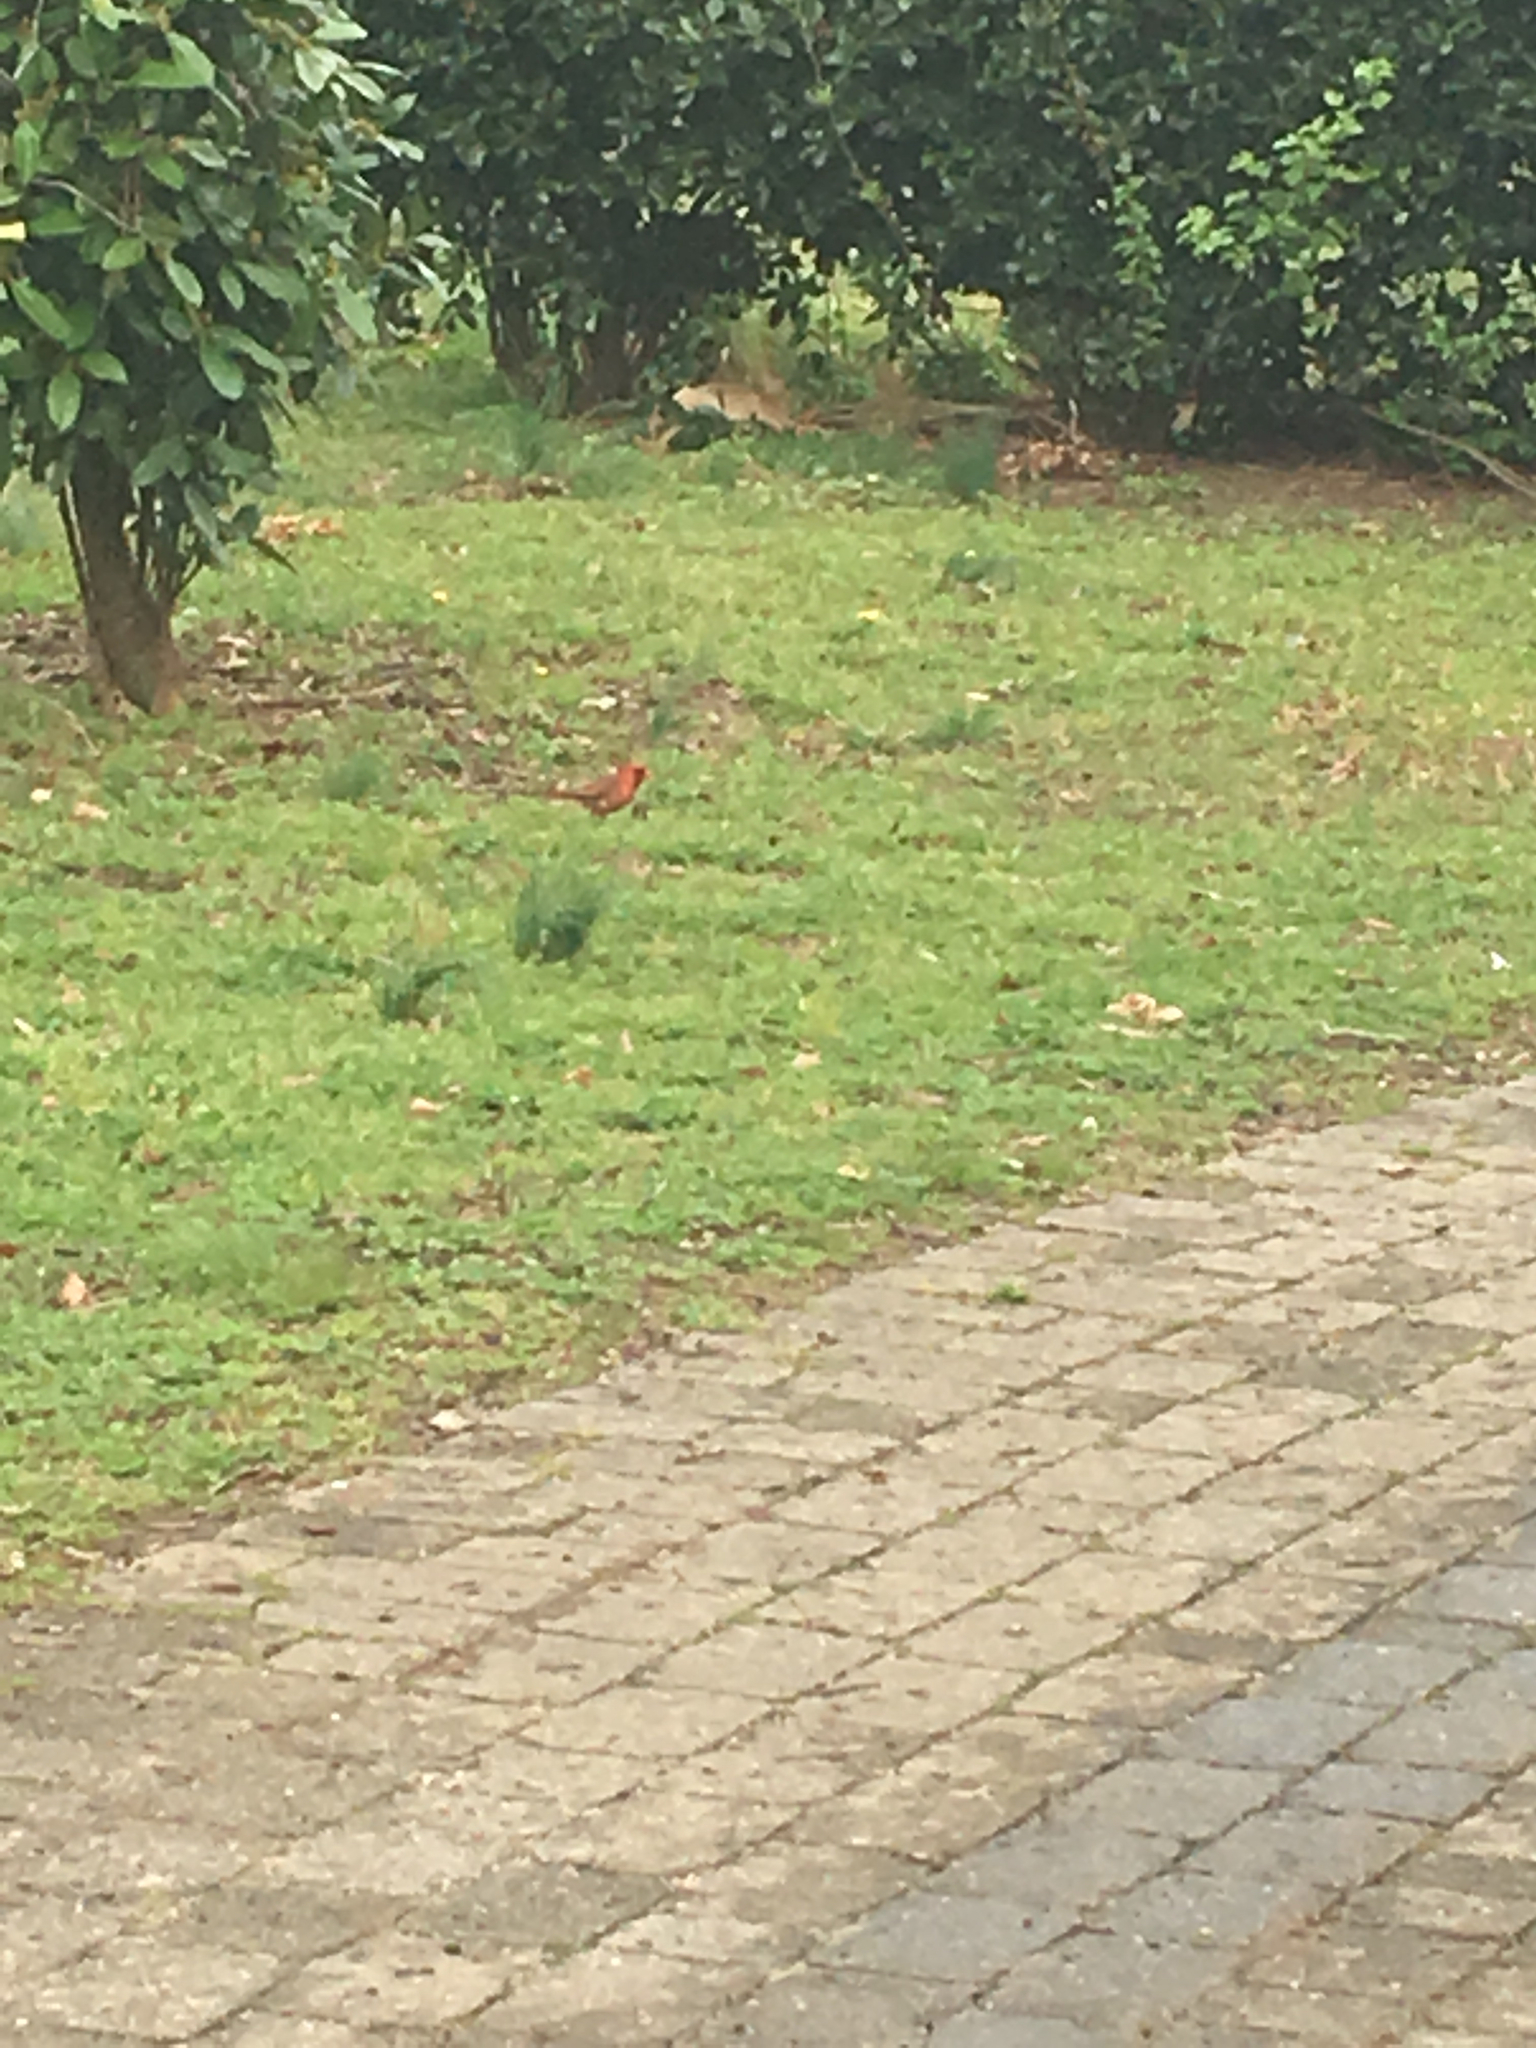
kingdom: Animalia
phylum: Chordata
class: Aves
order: Passeriformes
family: Cardinalidae
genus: Cardinalis
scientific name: Cardinalis cardinalis
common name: Northern cardinal
